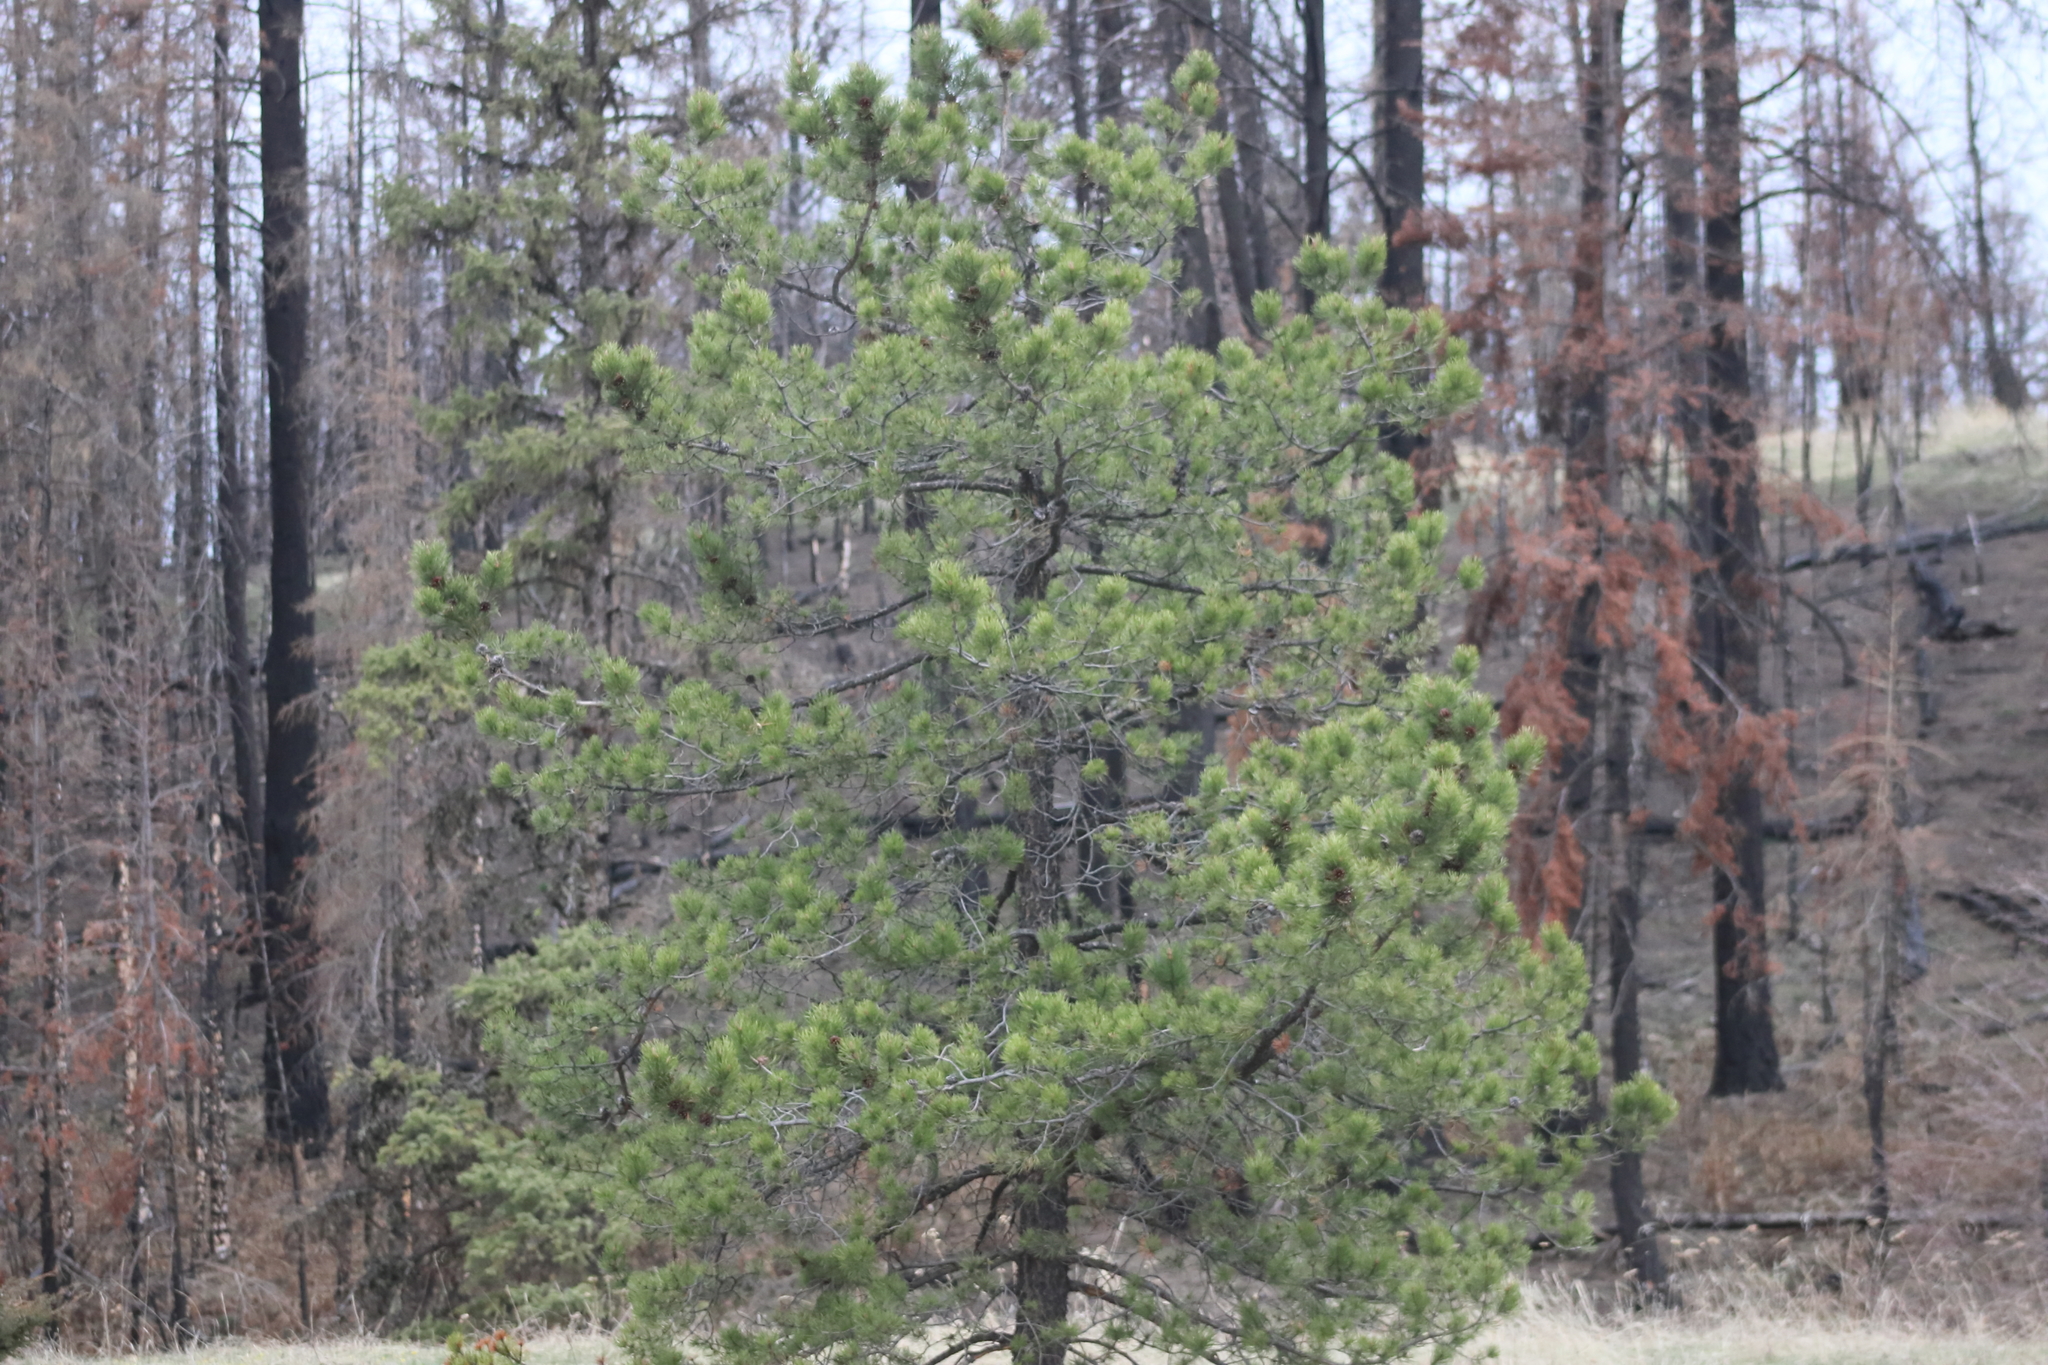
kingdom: Plantae
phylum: Tracheophyta
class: Pinopsida
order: Pinales
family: Pinaceae
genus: Pinus
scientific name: Pinus contorta
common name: Lodgepole pine
